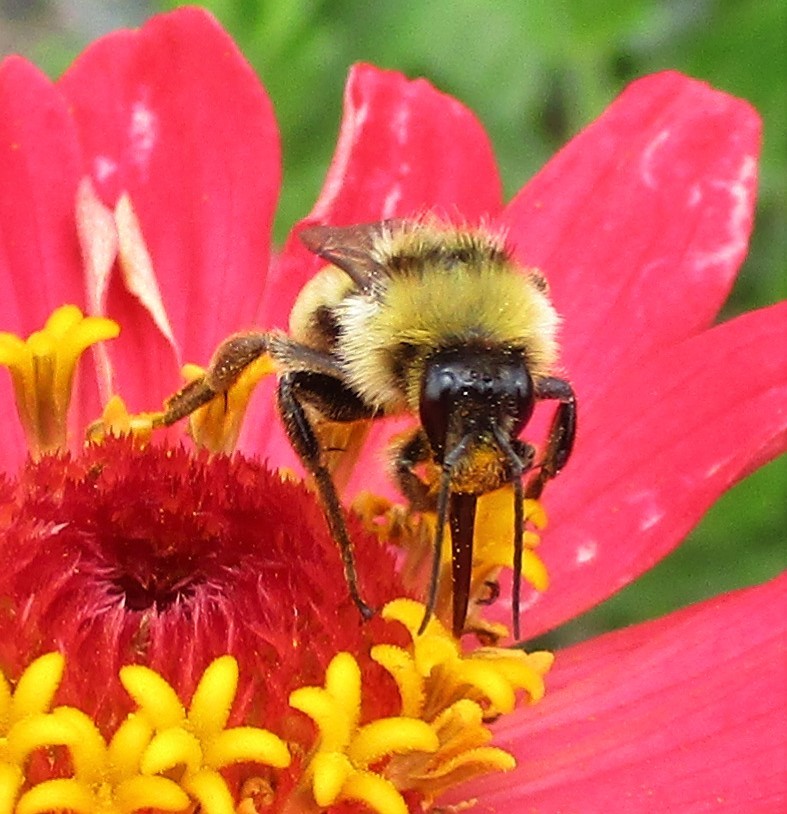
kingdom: Animalia
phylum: Arthropoda
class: Insecta
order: Hymenoptera
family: Apidae
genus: Bombus
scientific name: Bombus californicus
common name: California bumble bee
